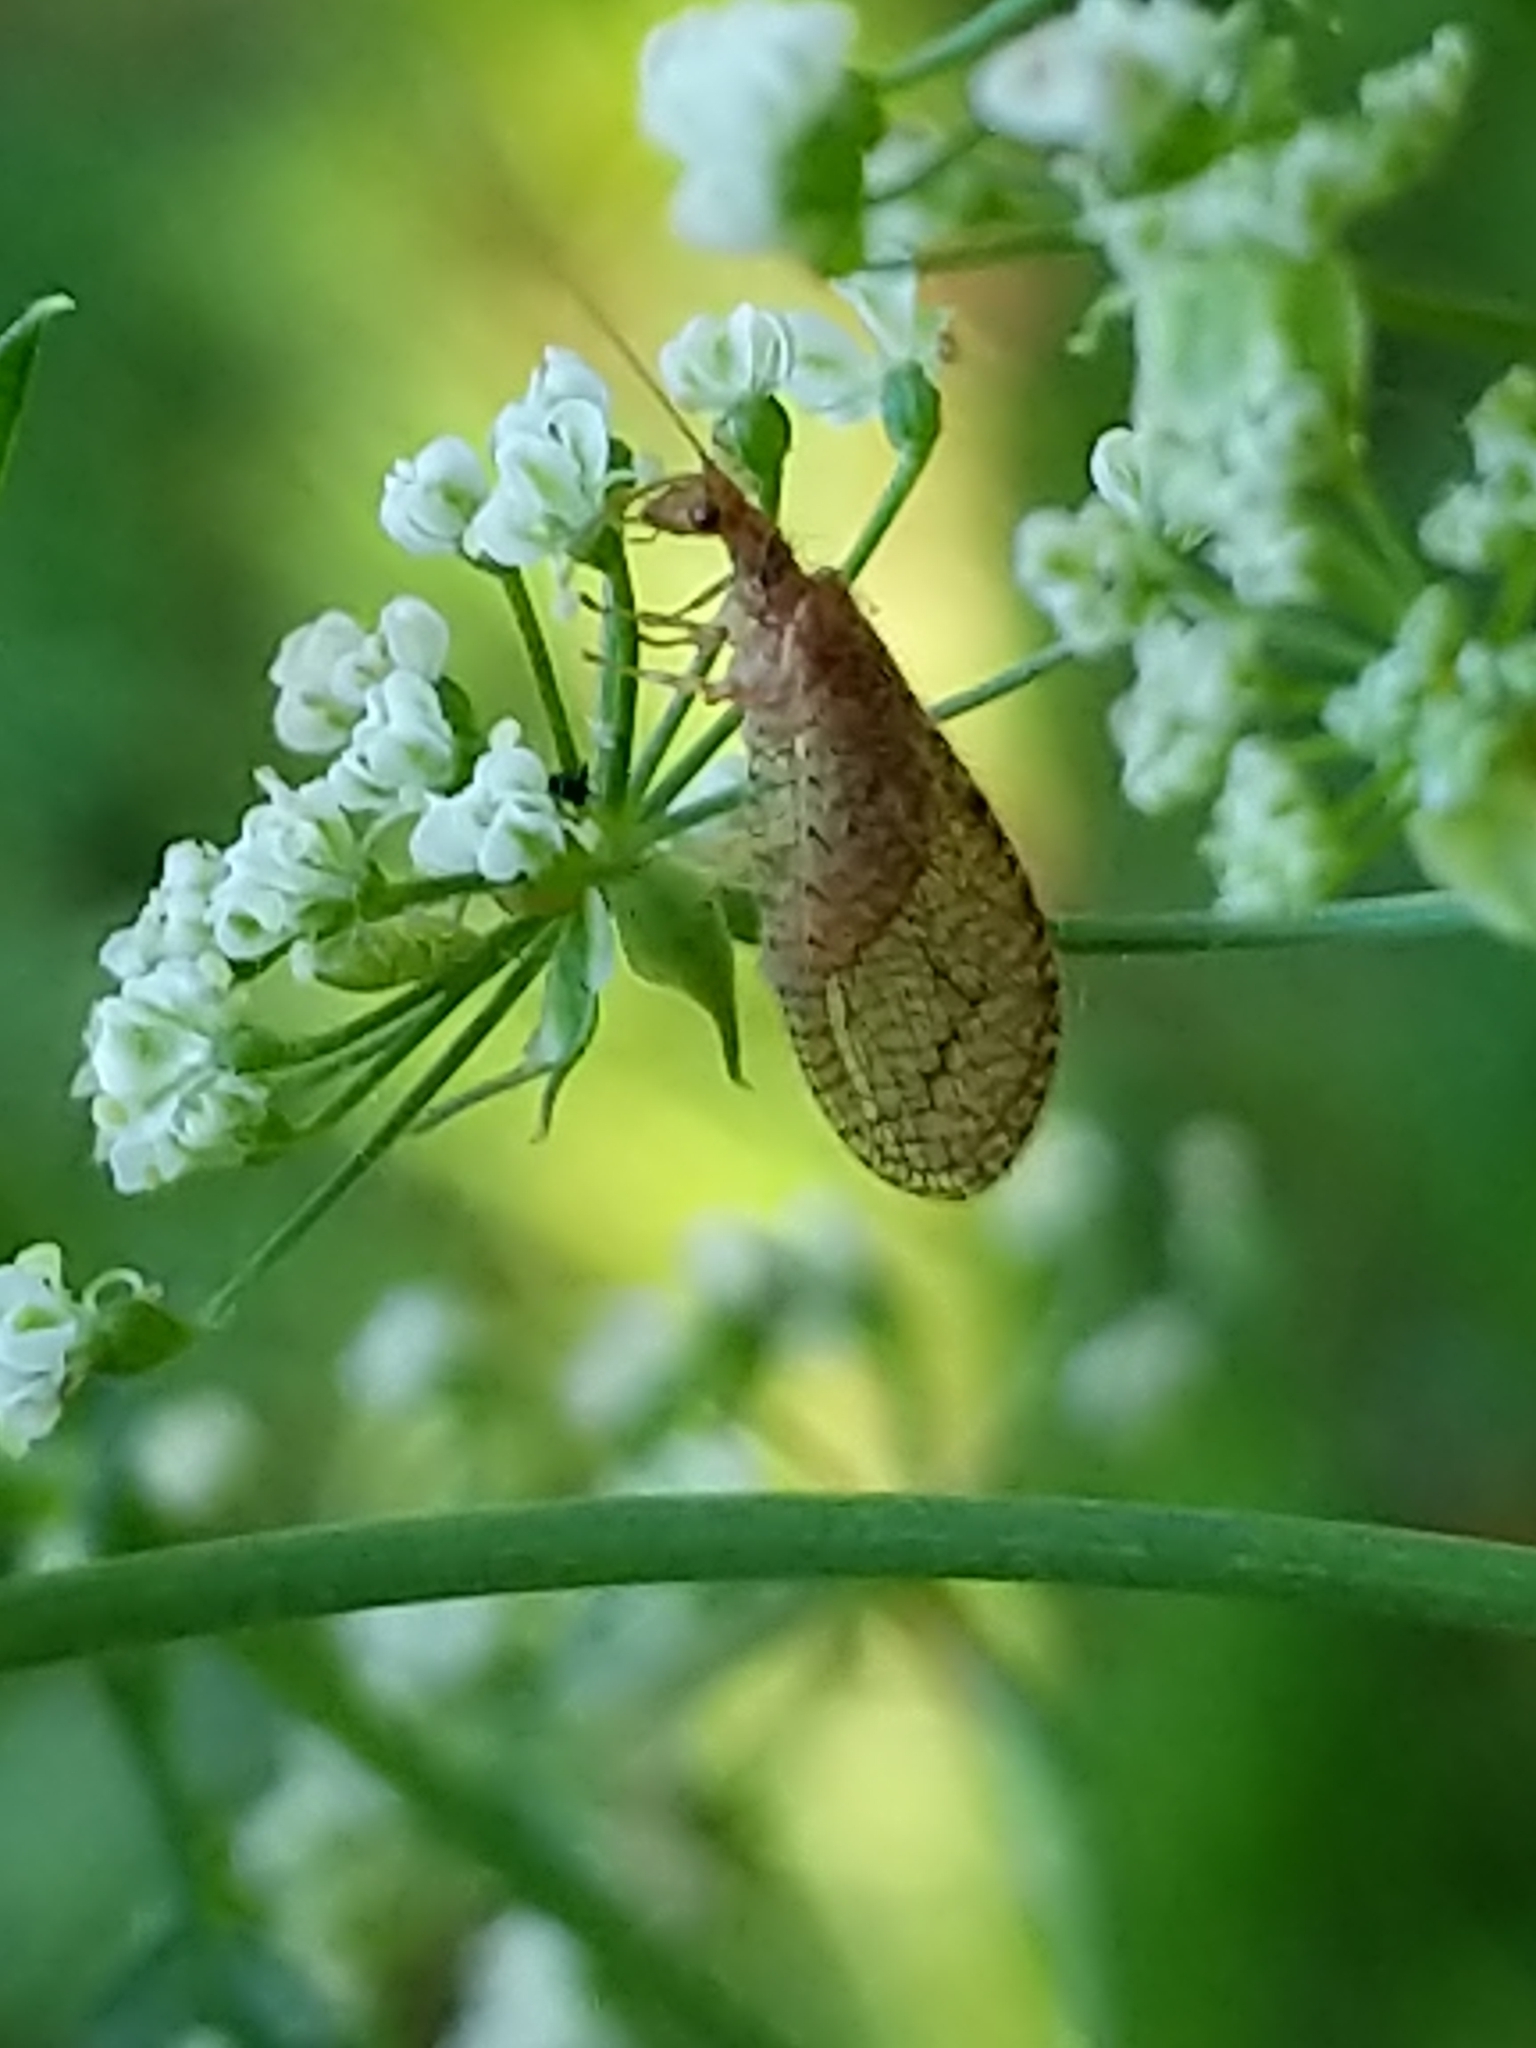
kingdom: Animalia
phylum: Arthropoda
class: Insecta
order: Neuroptera
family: Hemerobiidae
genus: Micromus
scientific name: Micromus posticus
